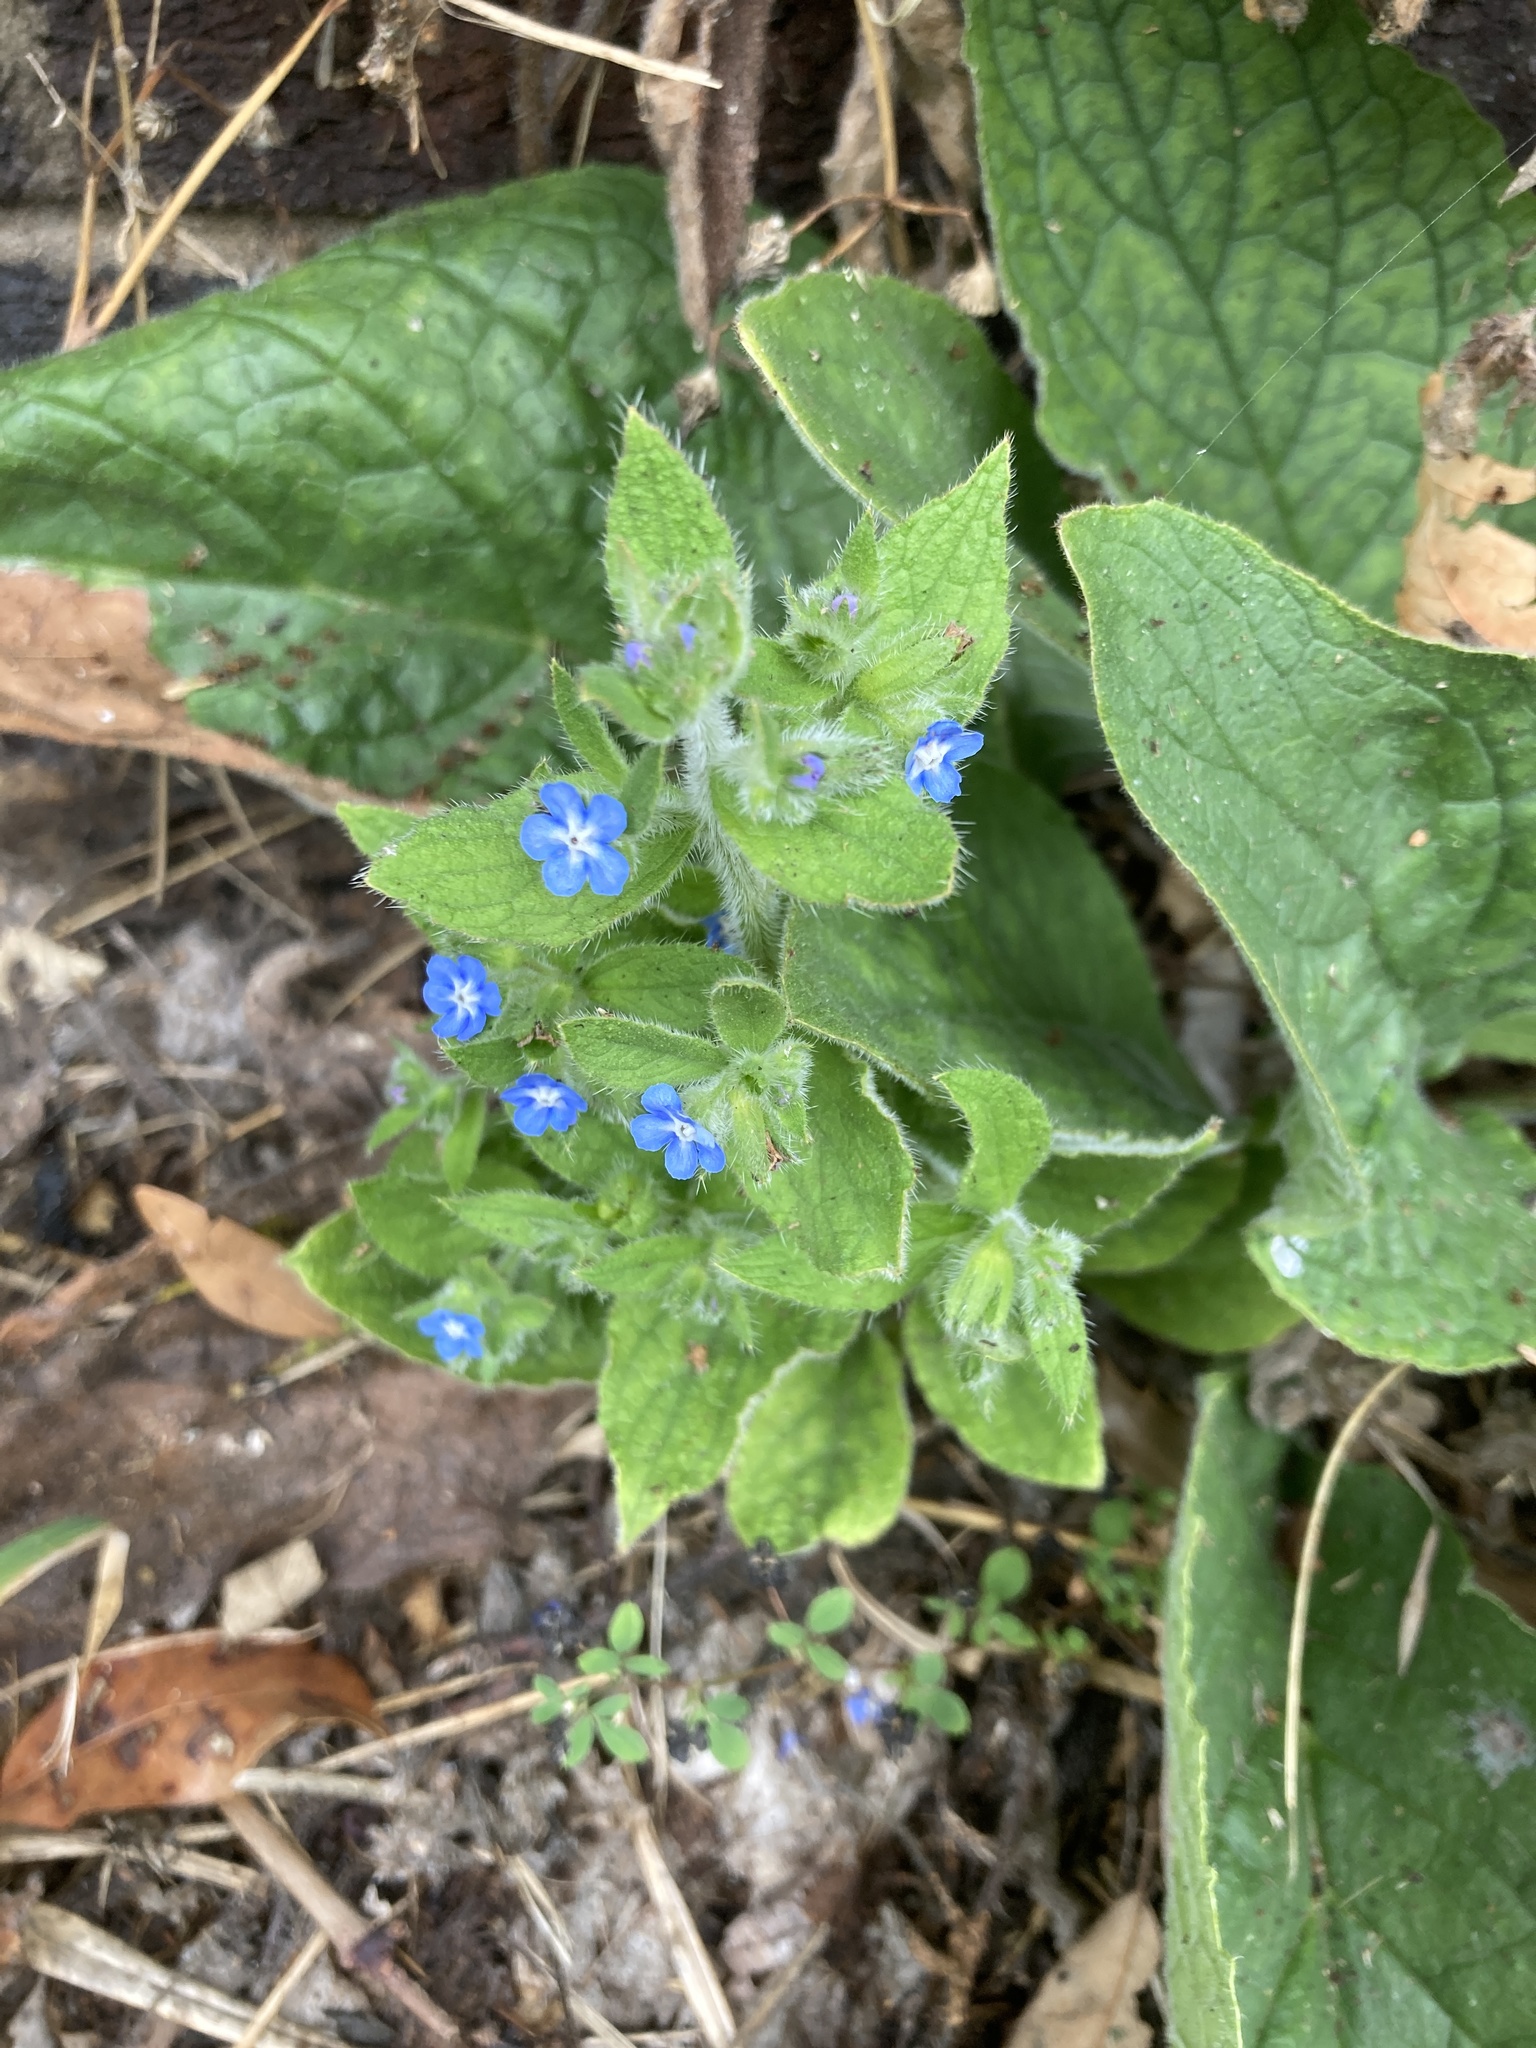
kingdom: Plantae
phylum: Tracheophyta
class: Magnoliopsida
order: Boraginales
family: Boraginaceae
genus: Pentaglottis
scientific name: Pentaglottis sempervirens
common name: Green alkanet
